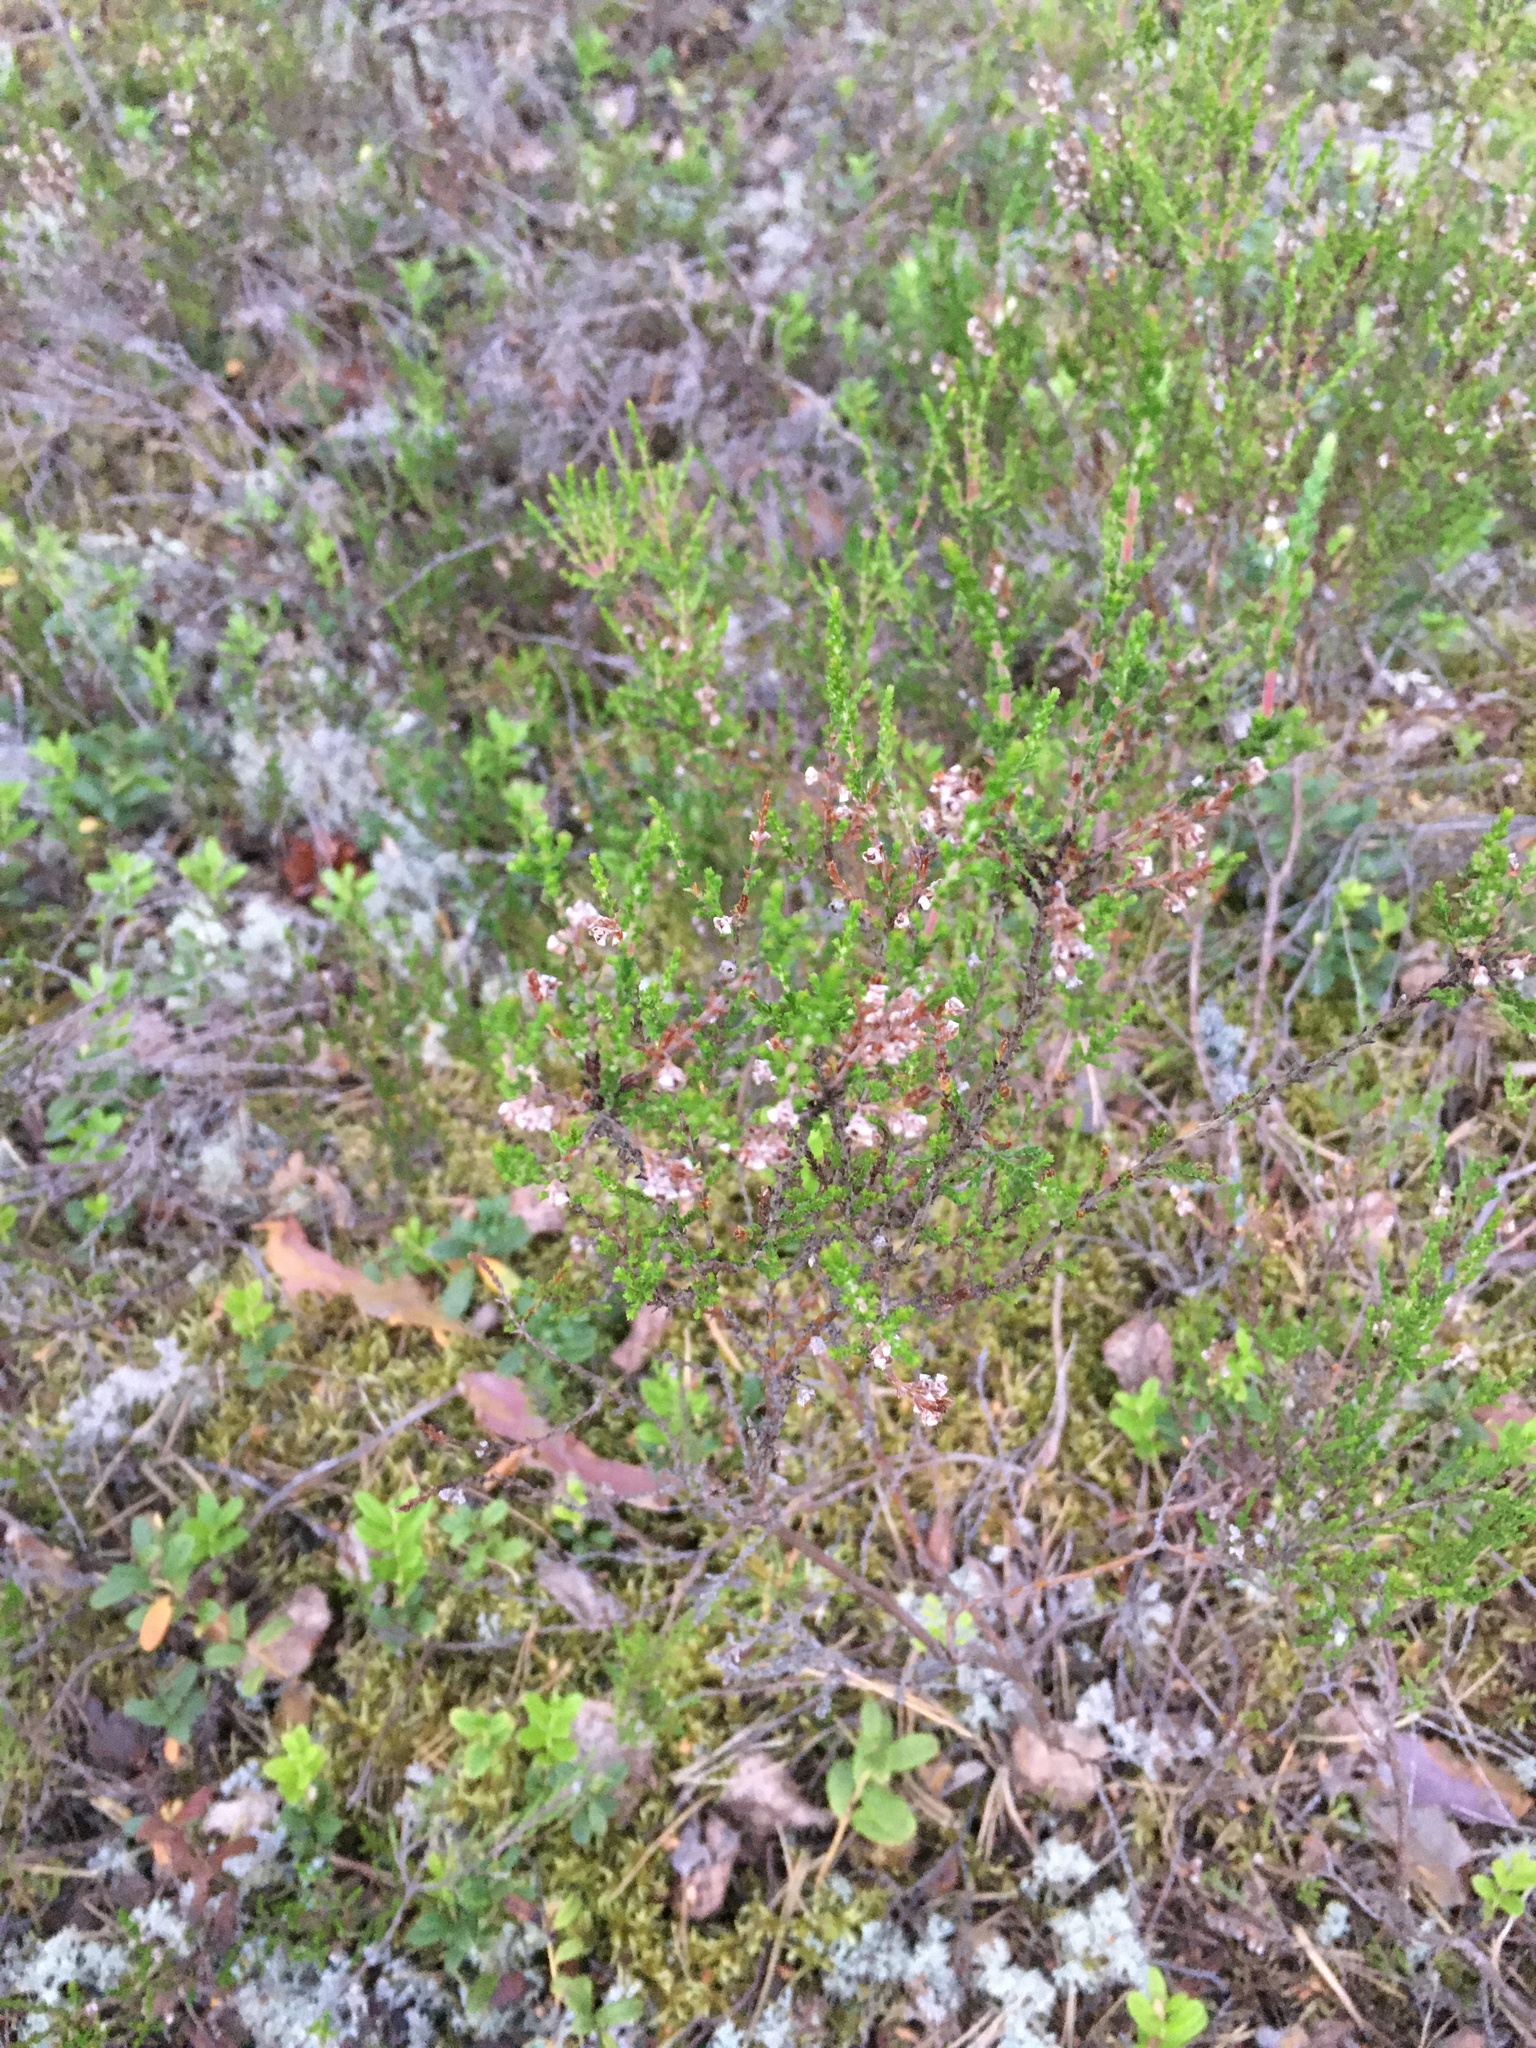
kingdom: Plantae
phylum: Tracheophyta
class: Magnoliopsida
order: Ericales
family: Ericaceae
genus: Calluna
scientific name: Calluna vulgaris
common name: Heather
